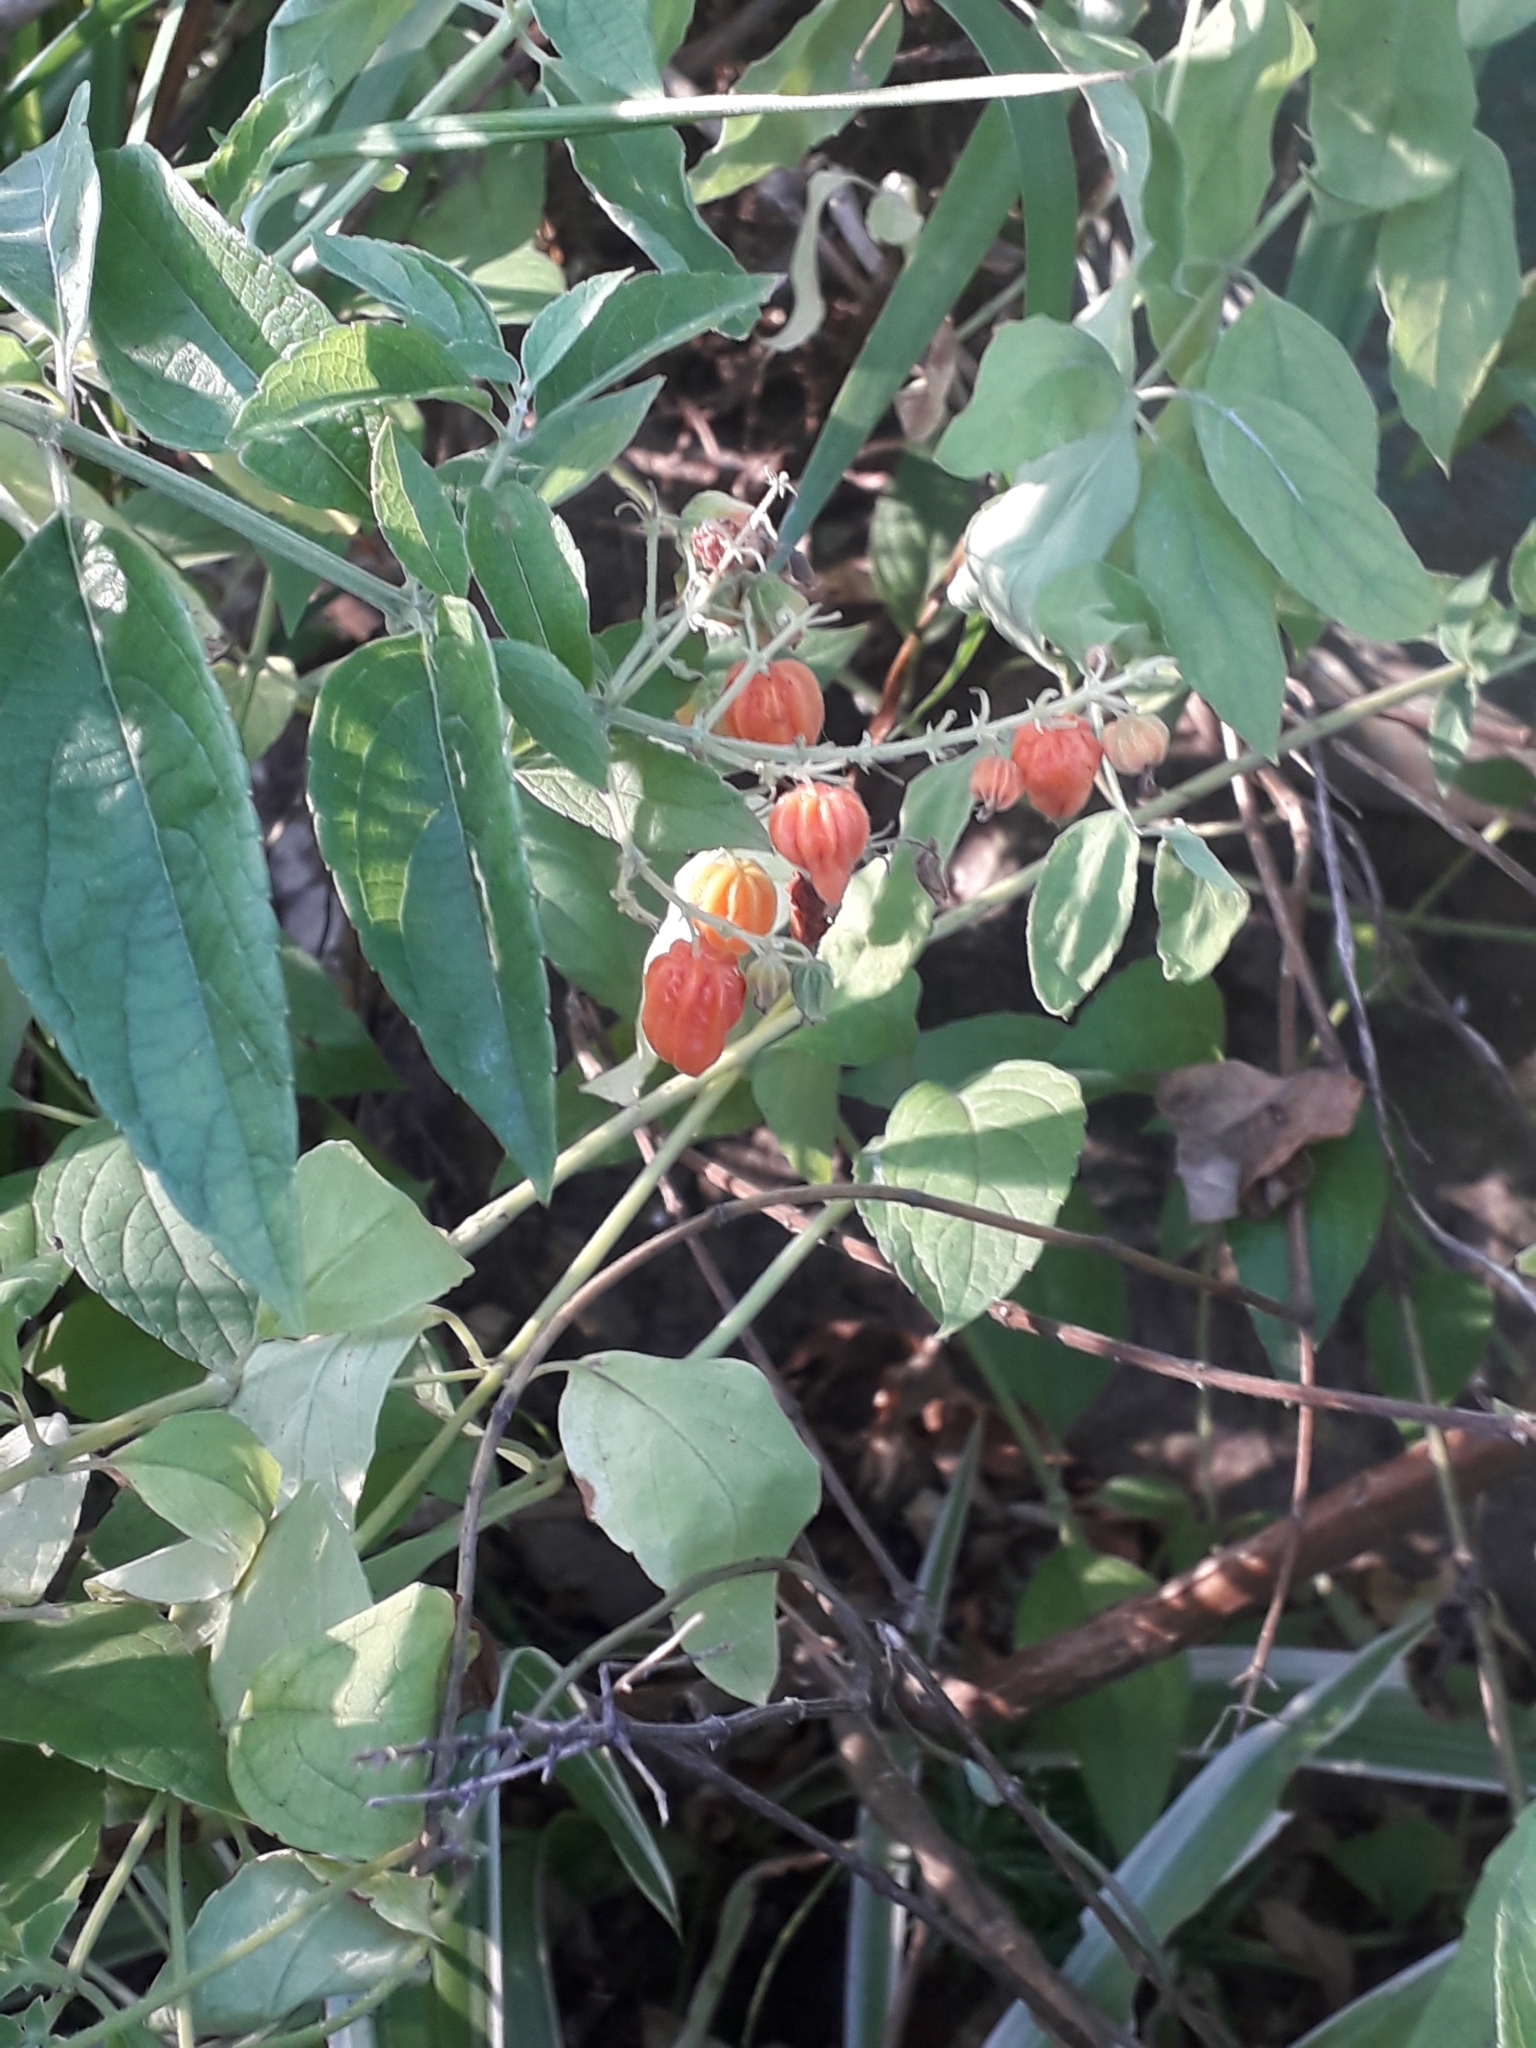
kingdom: Plantae
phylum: Tracheophyta
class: Magnoliopsida
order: Lamiales
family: Lamiaceae
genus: Hoslundia
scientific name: Hoslundia opposita
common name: Kamyuye
